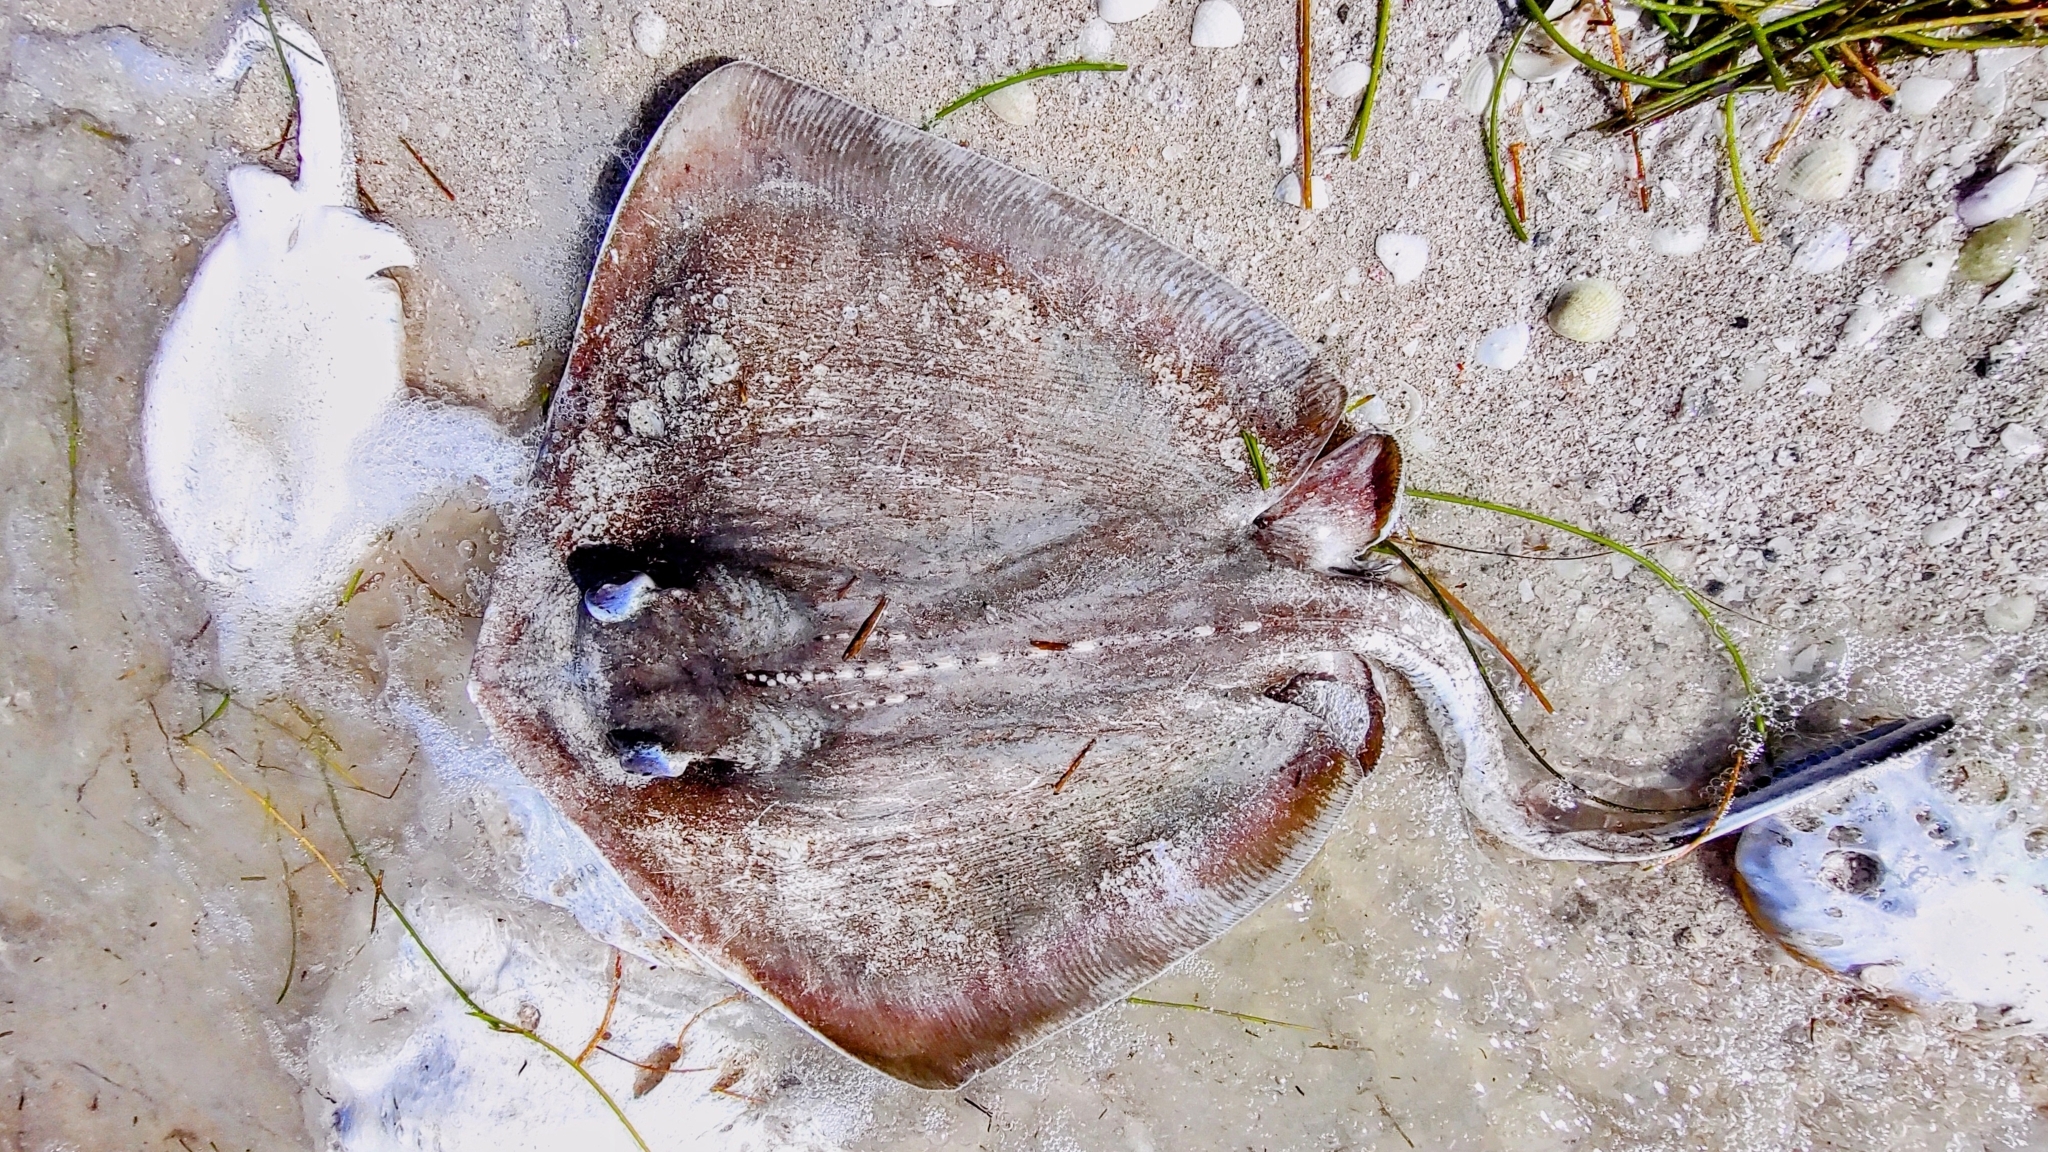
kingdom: Animalia
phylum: Chordata
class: Elasmobranchii
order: Myliobatiformes
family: Dasyatidae
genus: Hypanus
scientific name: Hypanus americanus
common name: Southern stingray
